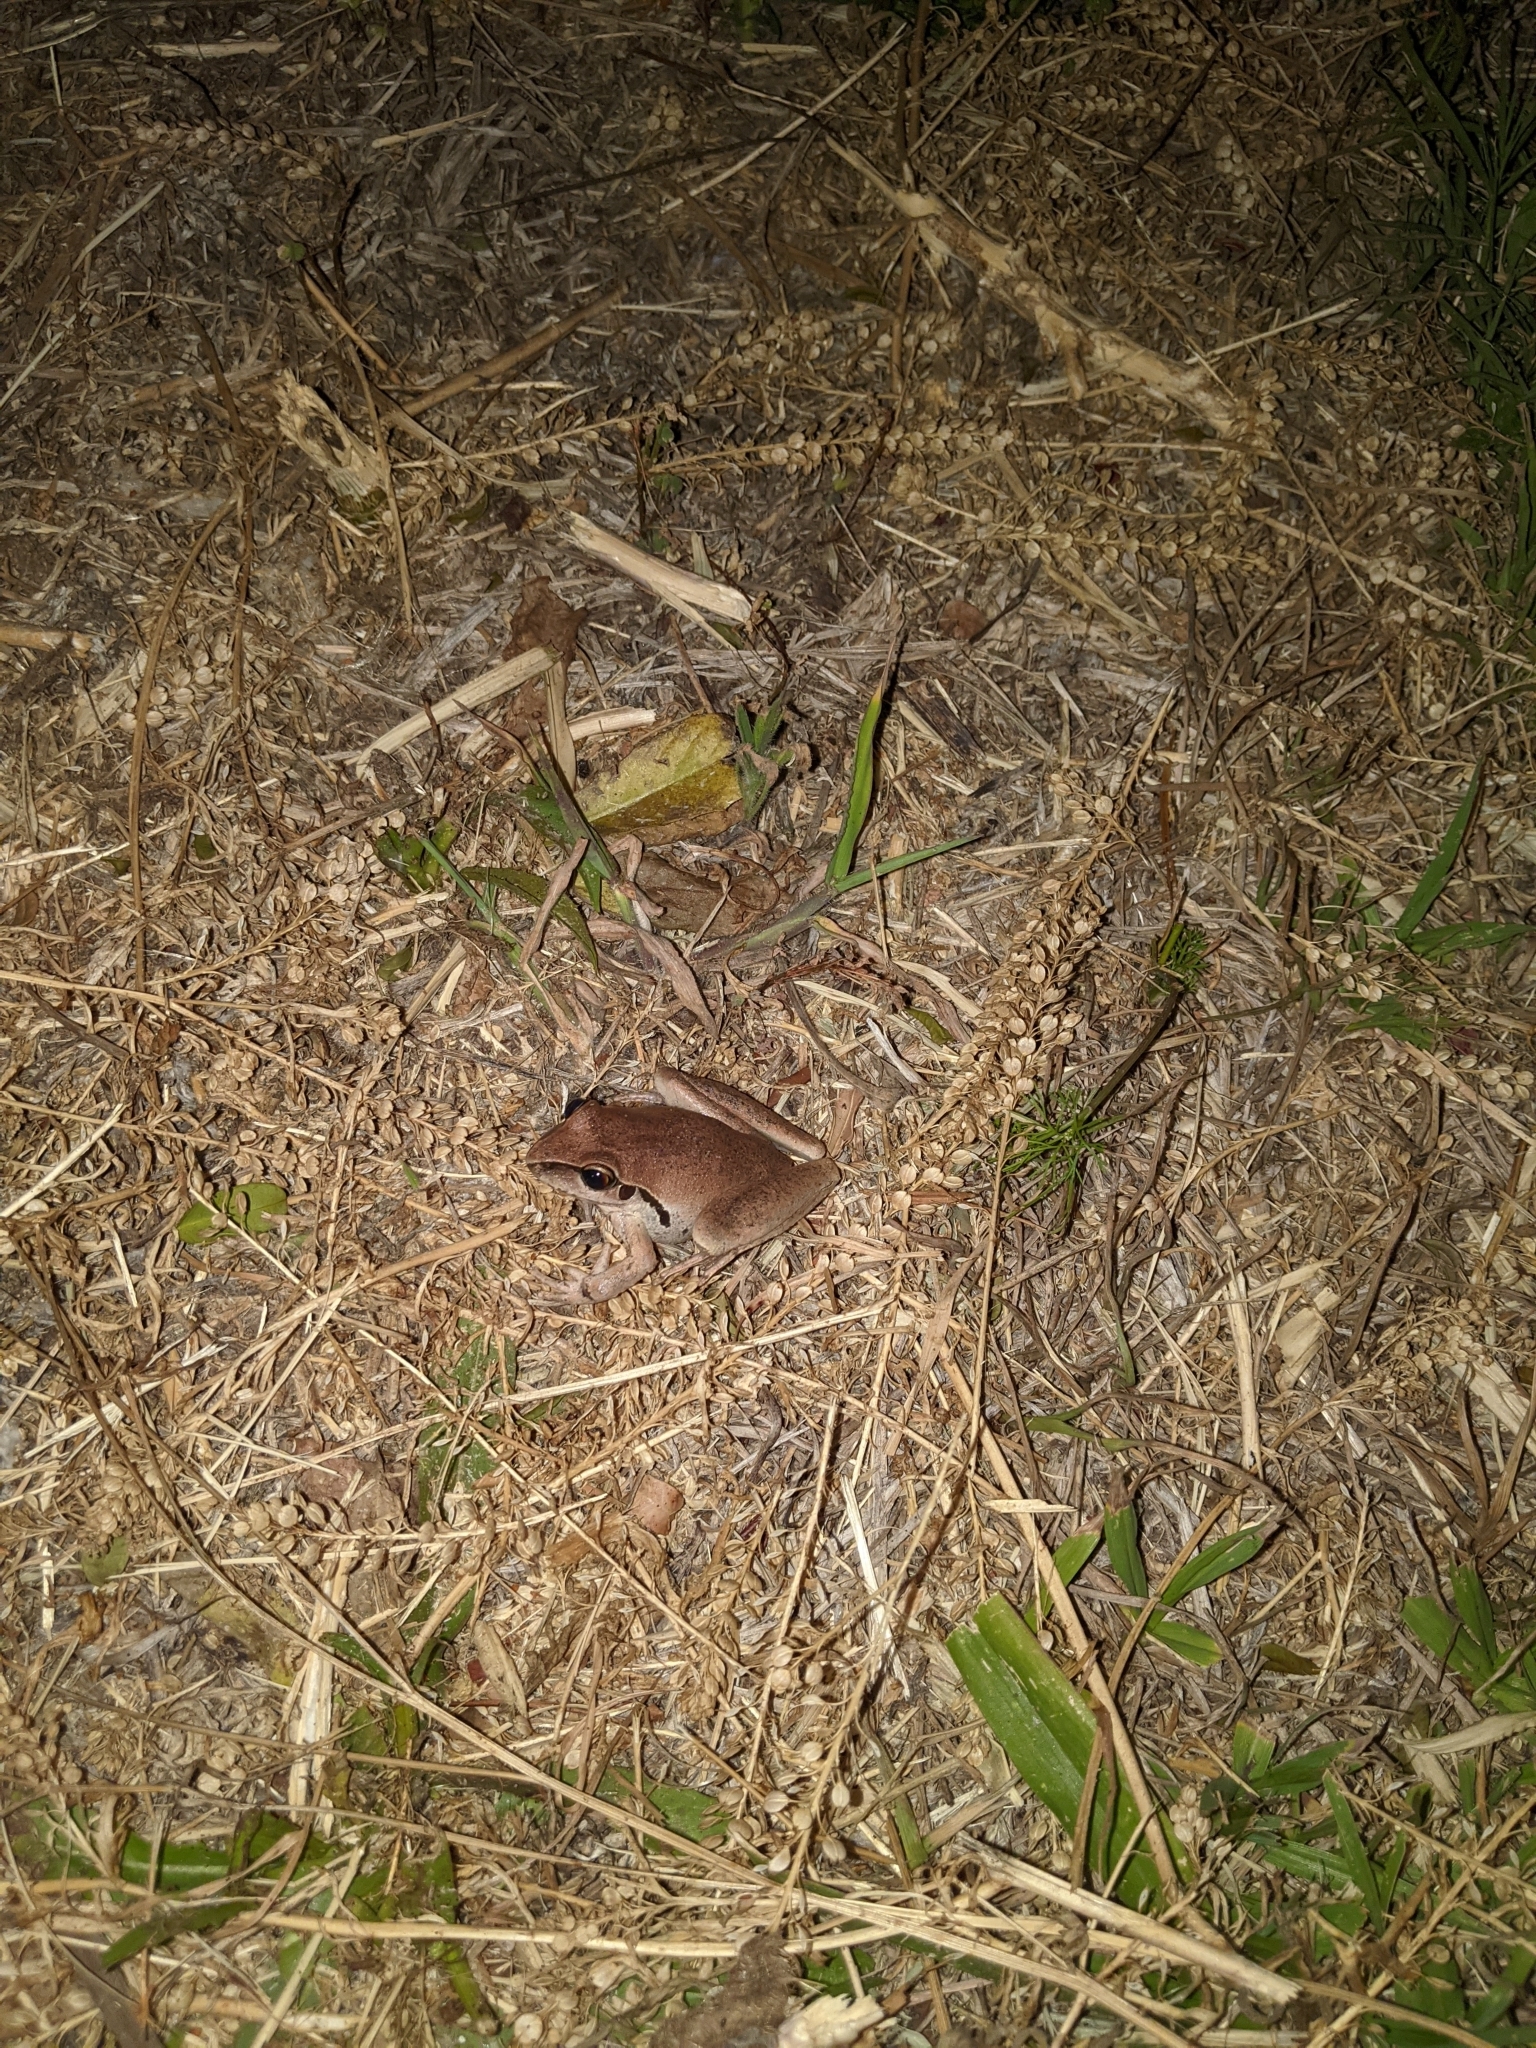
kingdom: Animalia
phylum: Chordata
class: Amphibia
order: Anura
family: Pelodryadidae
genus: Ranoidea
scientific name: Ranoidea wilcoxii
